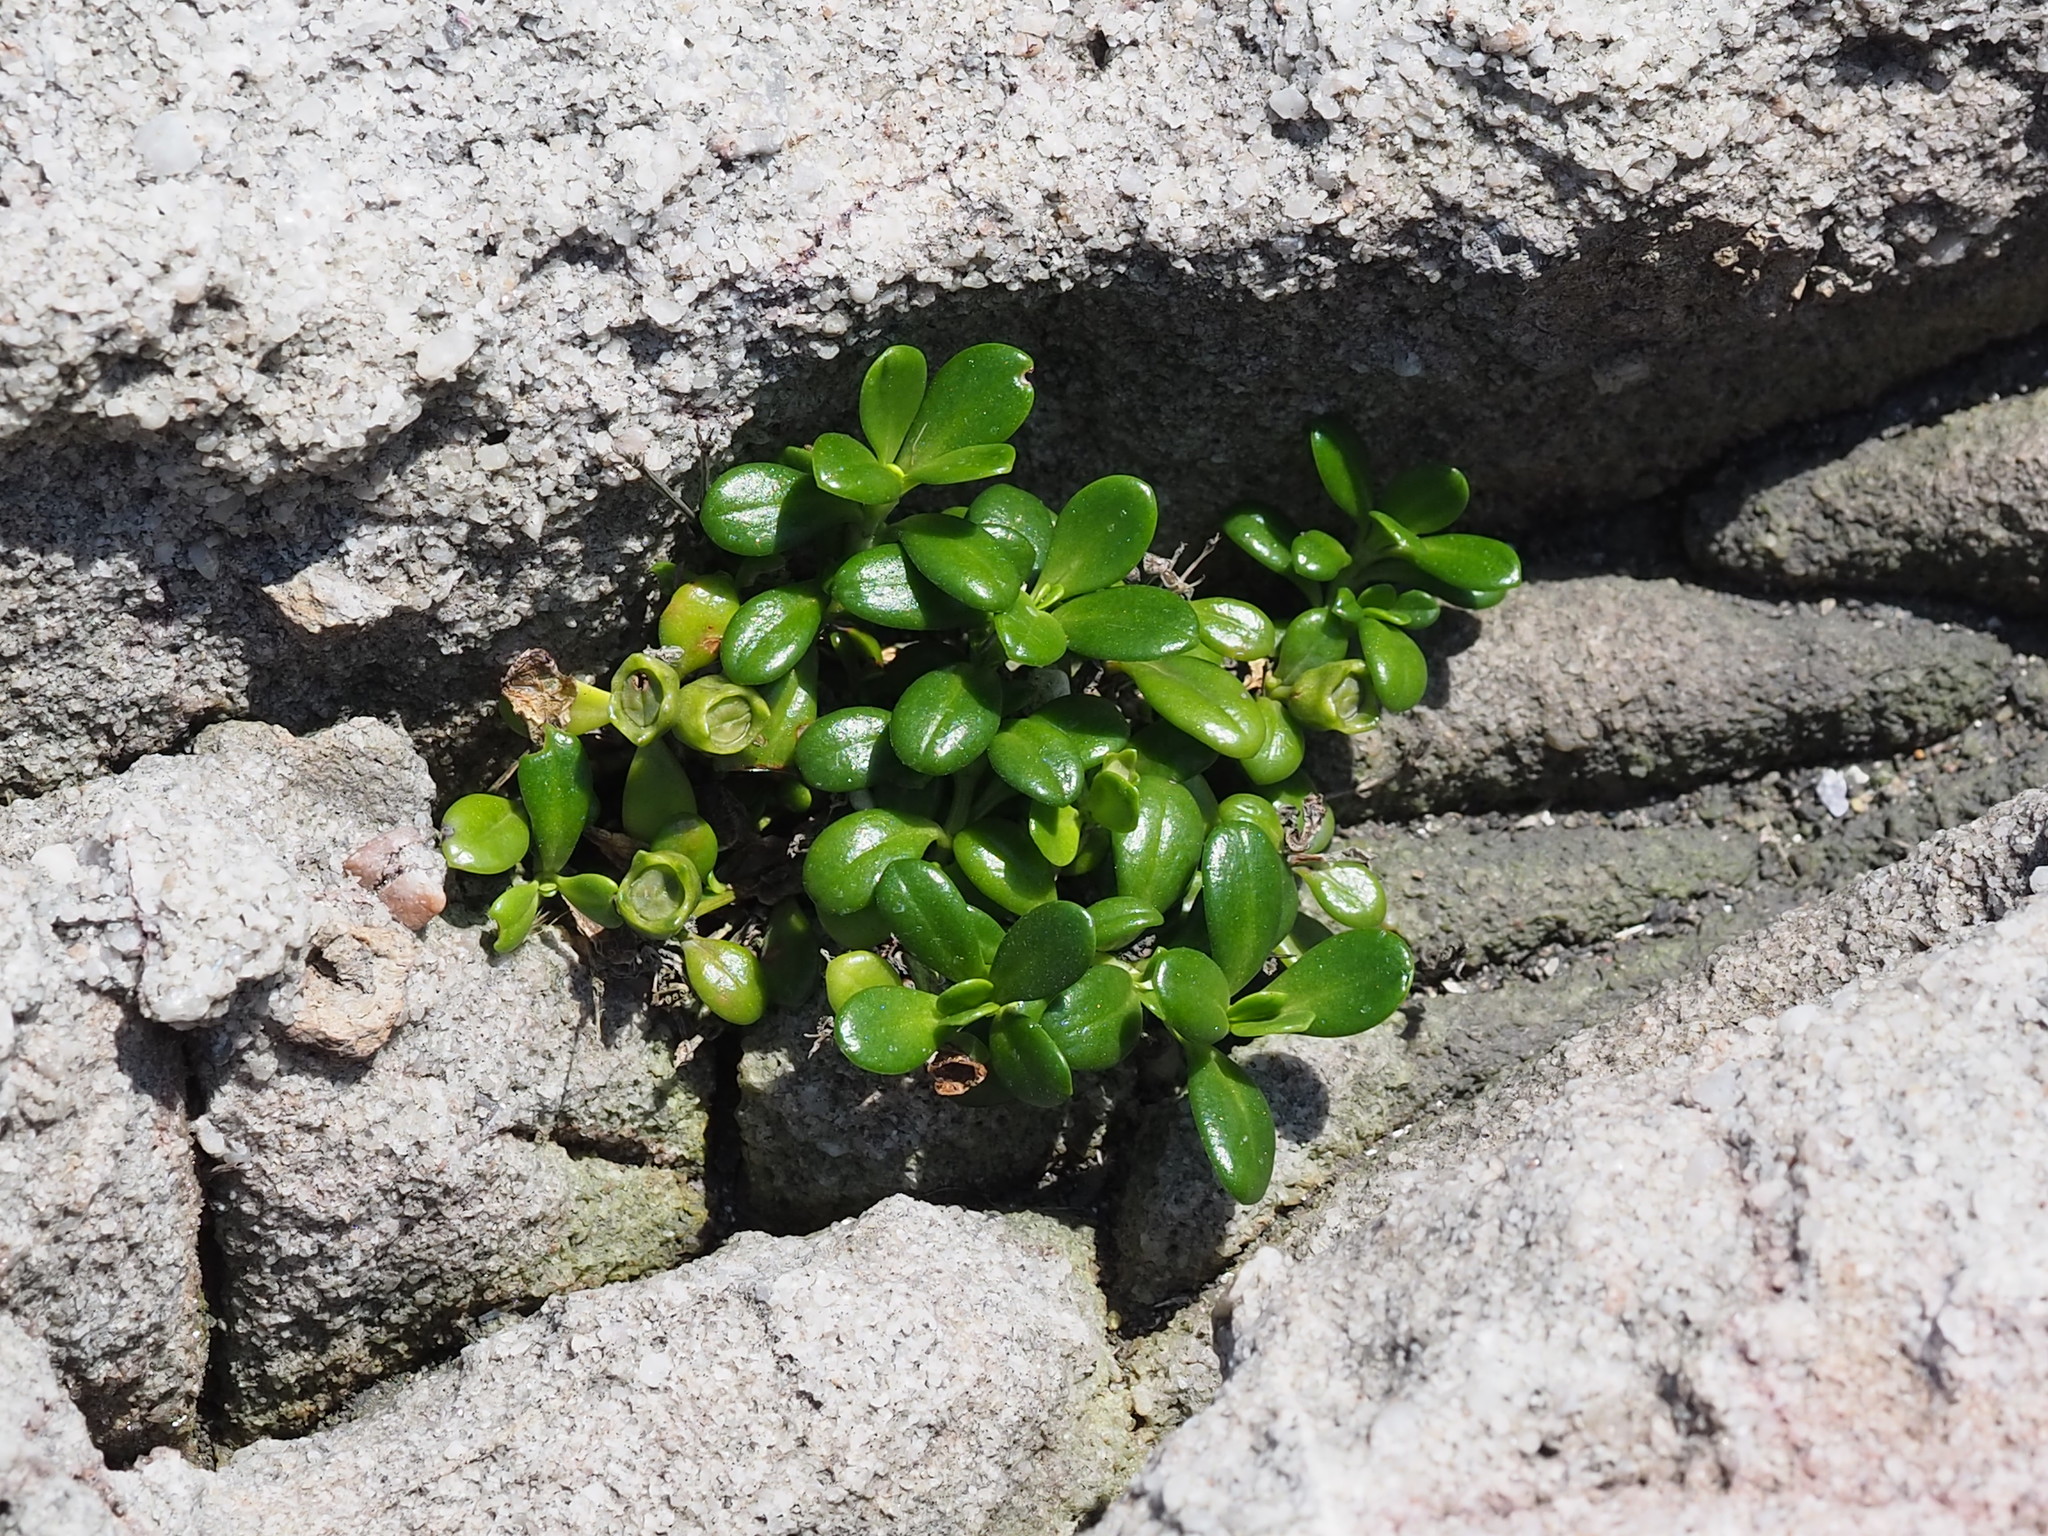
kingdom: Plantae
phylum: Tracheophyta
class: Magnoliopsida
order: Gentianales
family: Rubiaceae
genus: Leptopetalum
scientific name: Leptopetalum strigulosum
